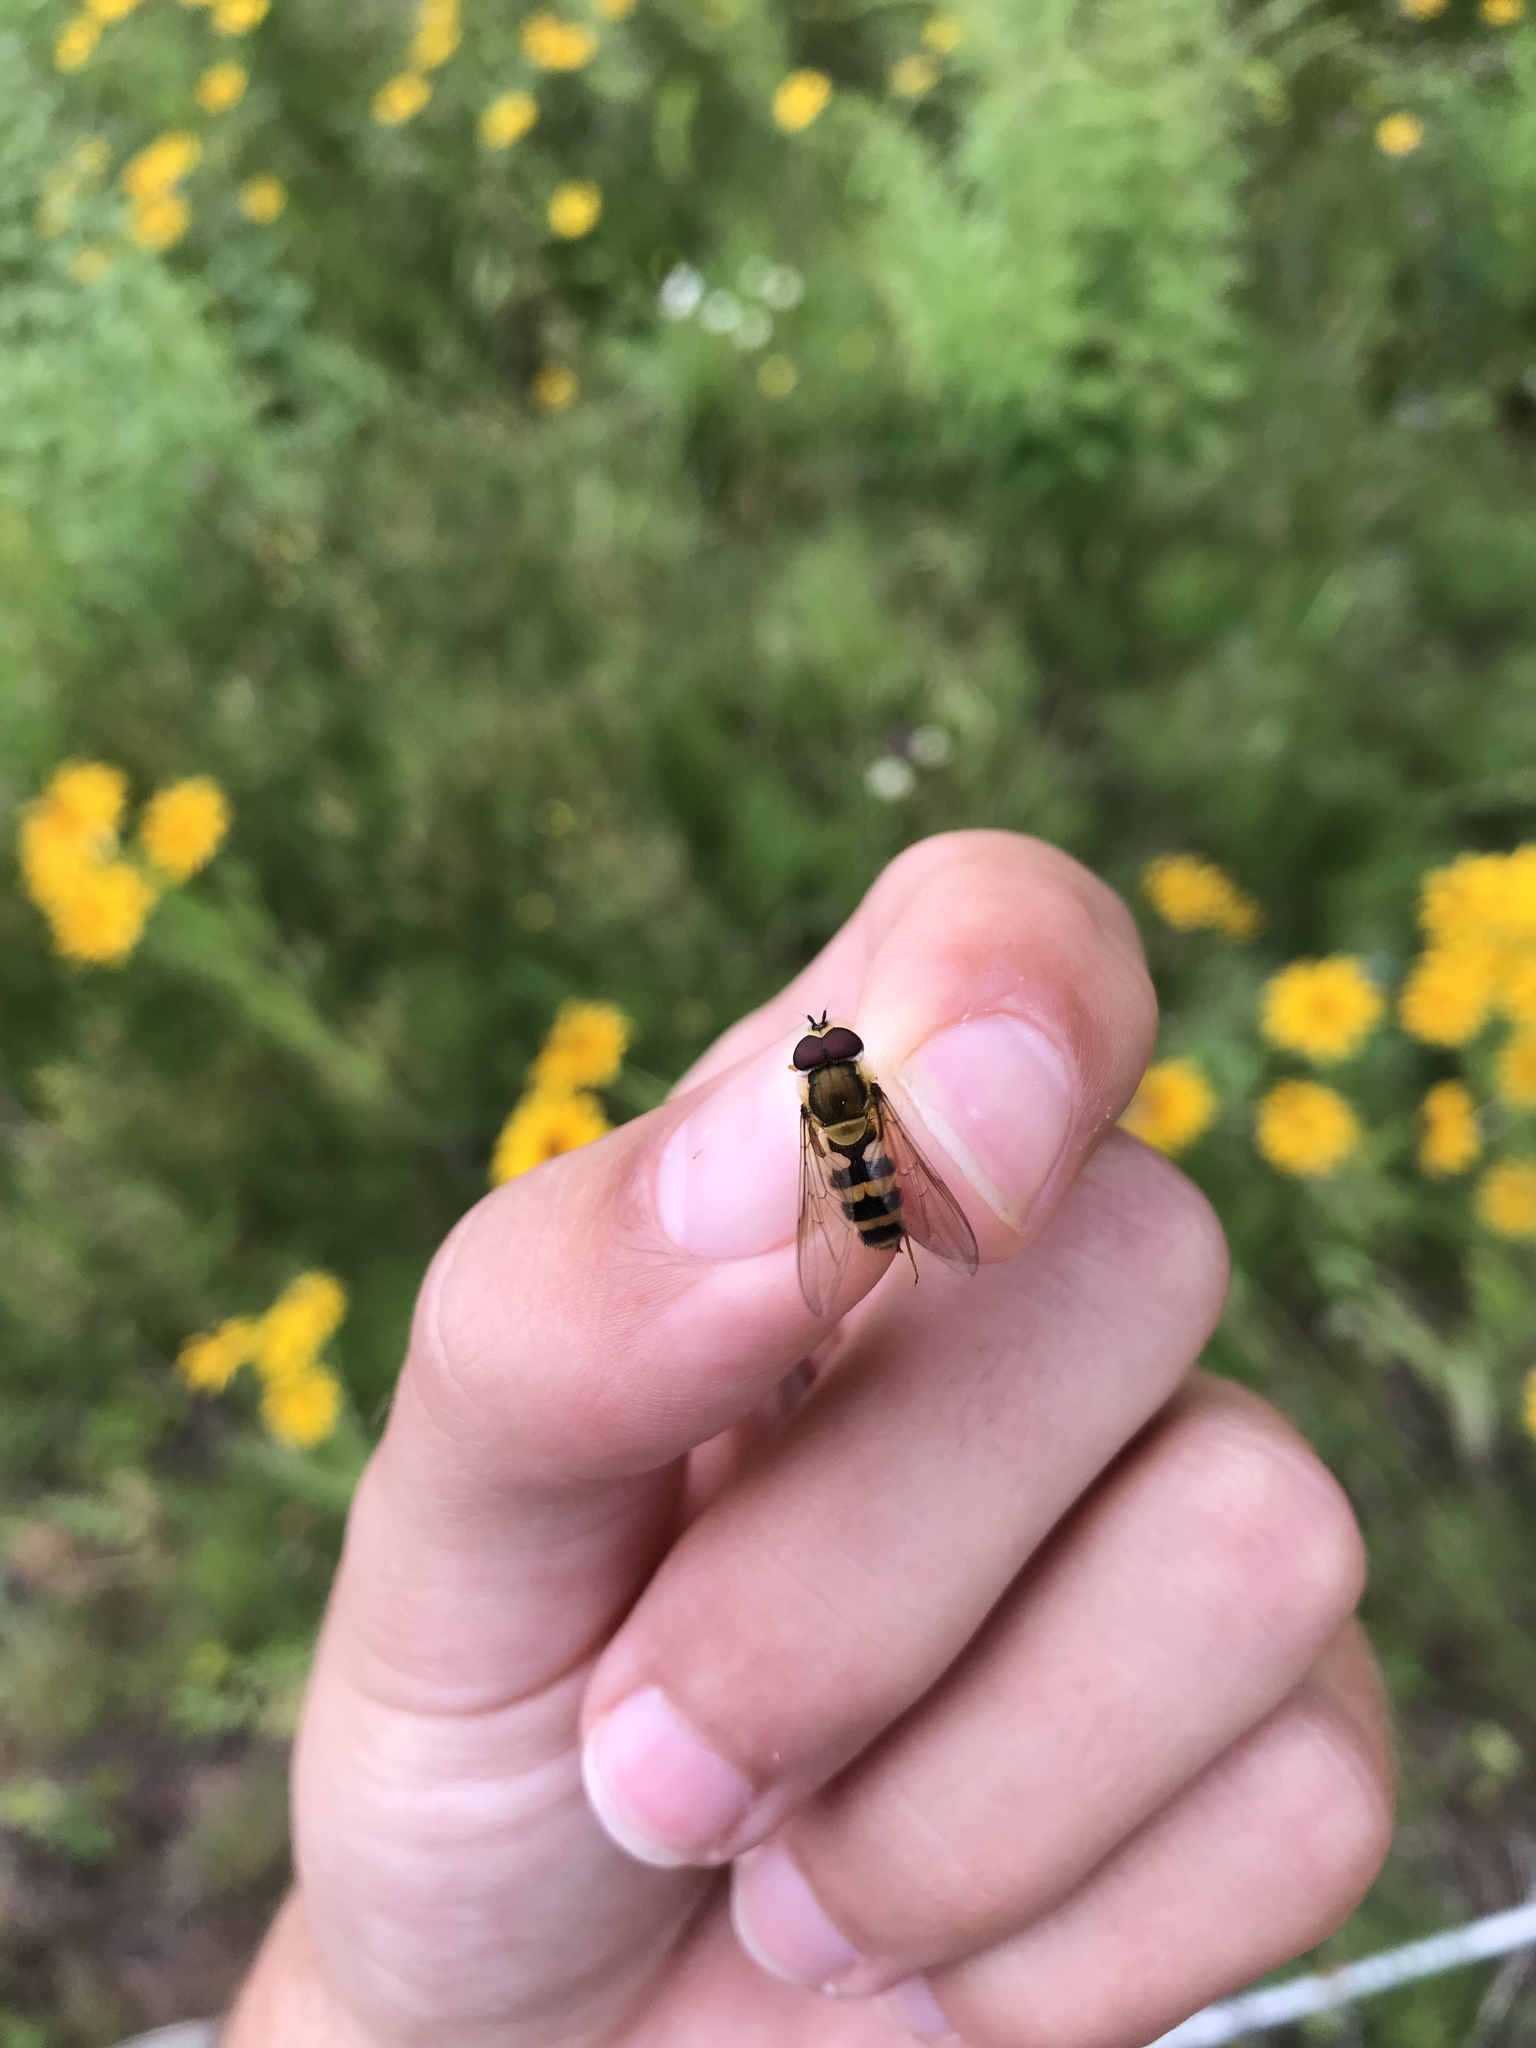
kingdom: Animalia
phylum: Arthropoda
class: Insecta
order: Diptera
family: Syrphidae
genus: Epistrophe
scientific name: Epistrophe grossulariae
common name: Black-horned smoothtail
